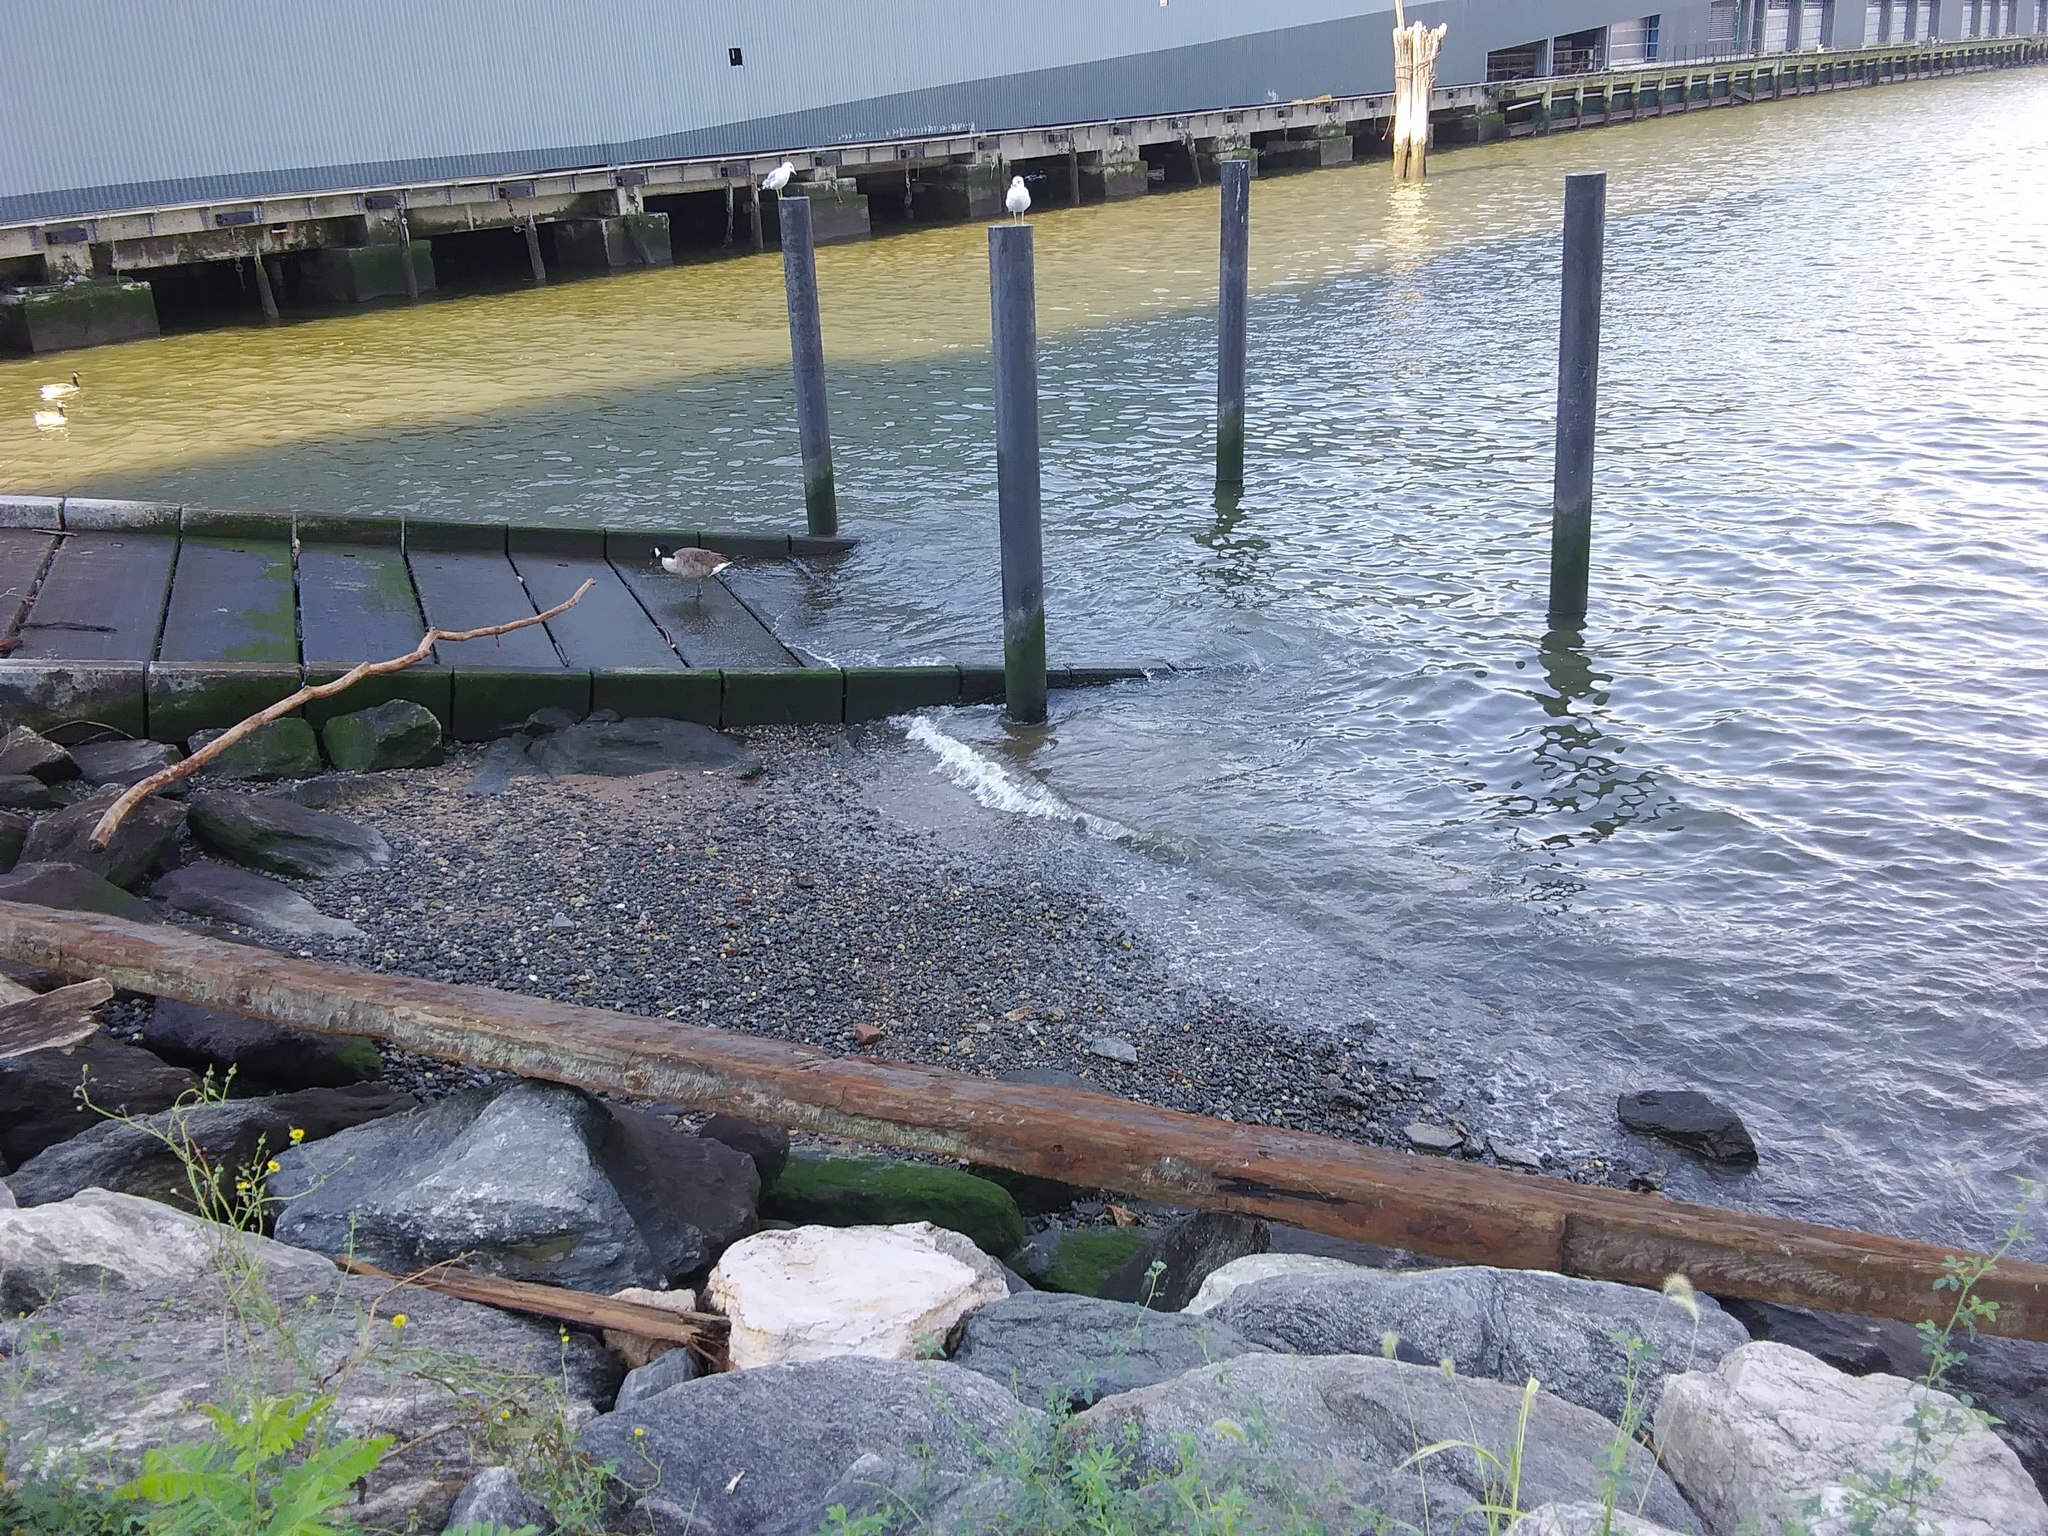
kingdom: Animalia
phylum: Chordata
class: Aves
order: Anseriformes
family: Anatidae
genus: Branta
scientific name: Branta canadensis
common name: Canada goose
